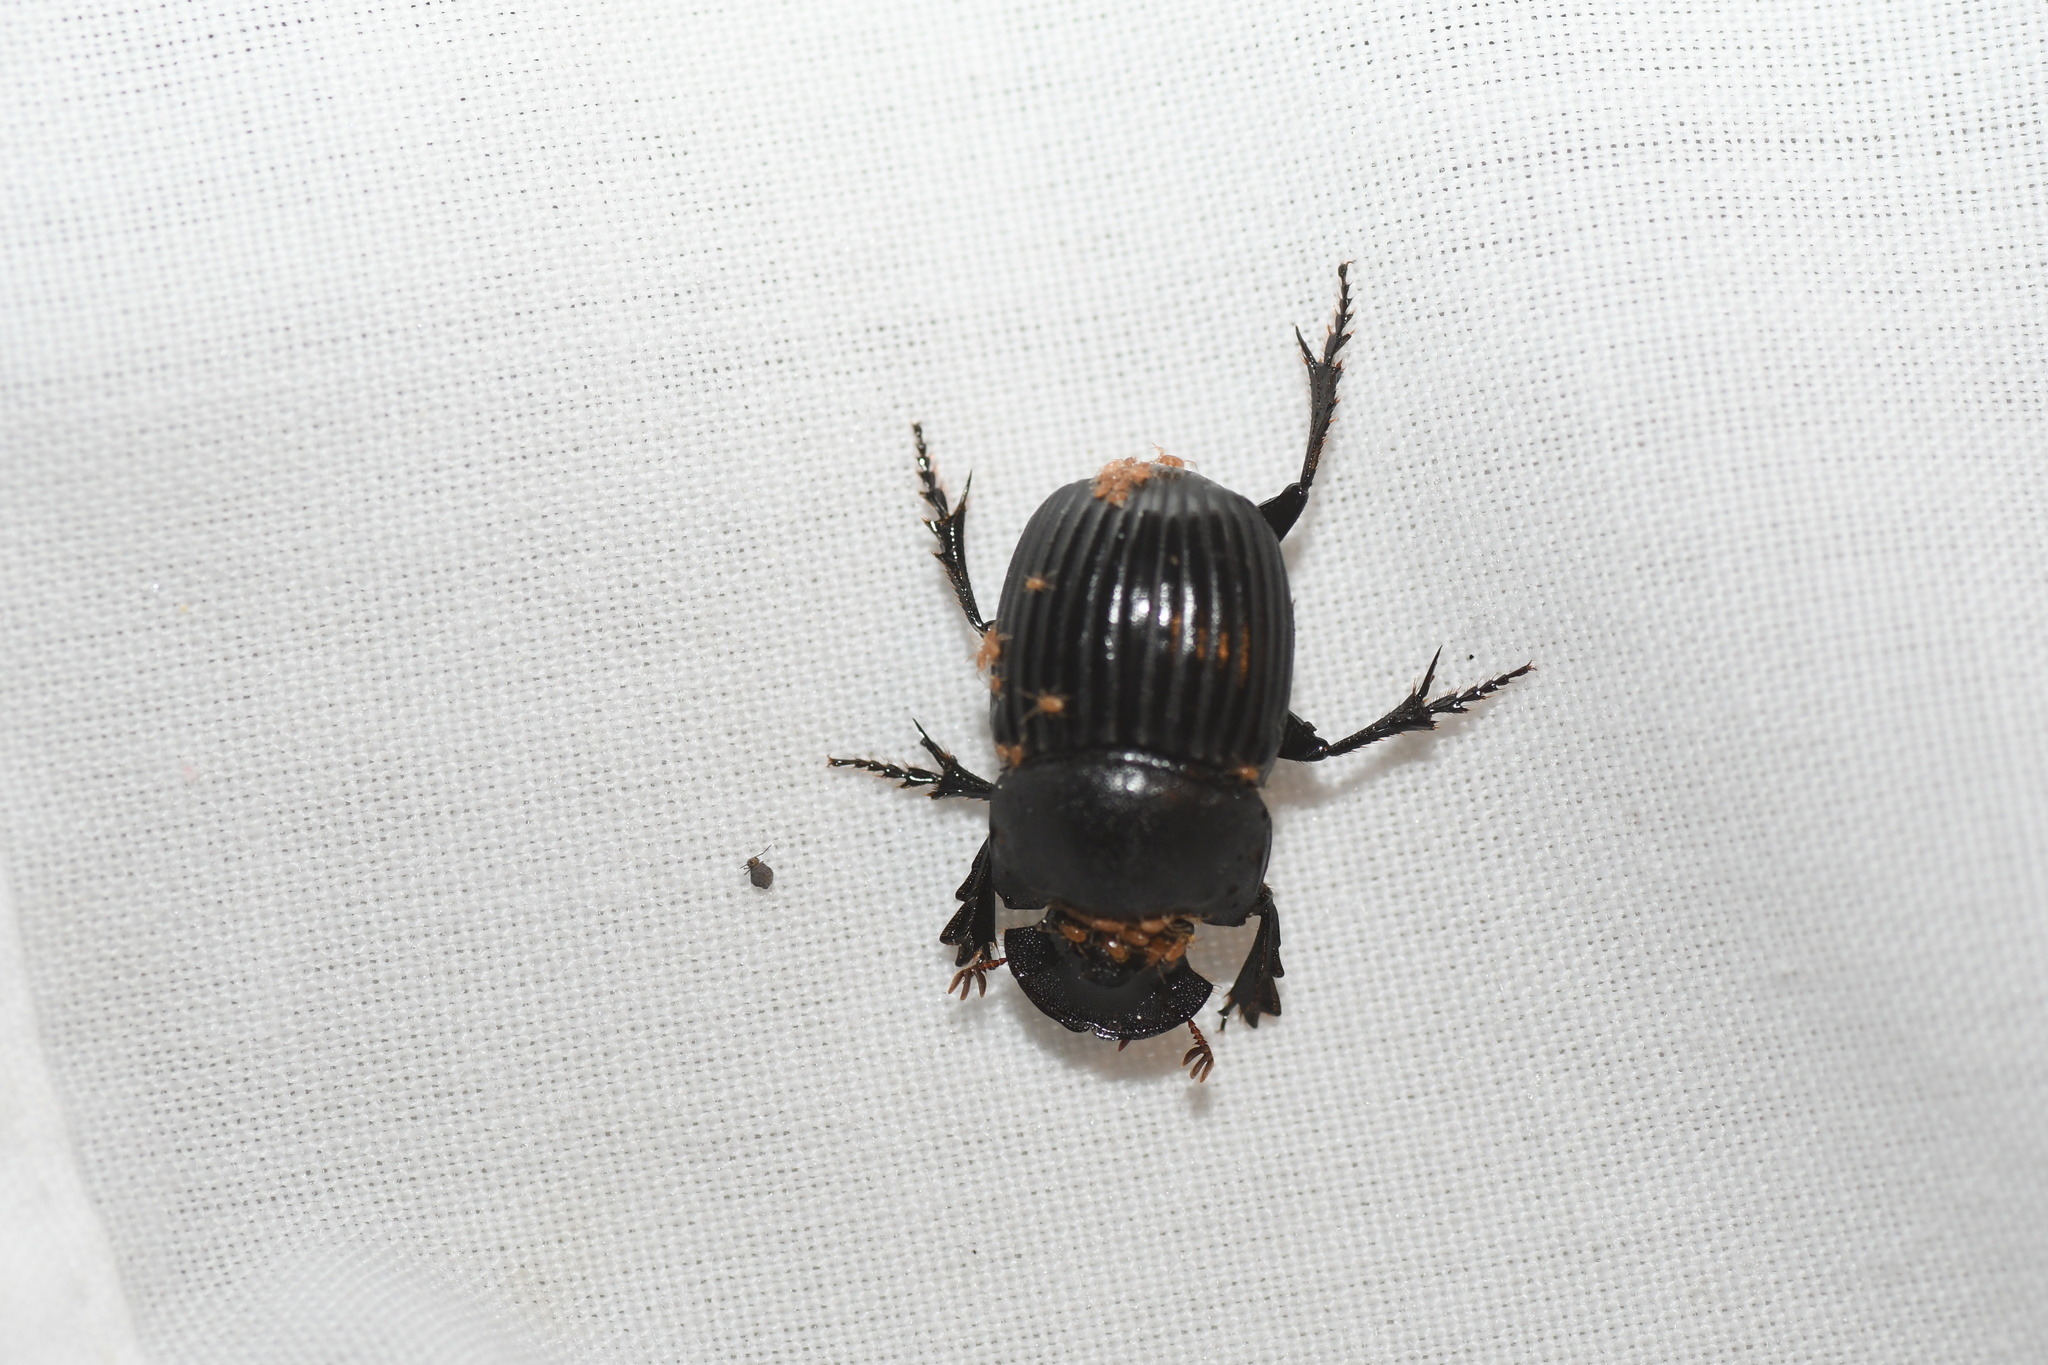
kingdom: Animalia
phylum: Arthropoda
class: Insecta
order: Coleoptera
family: Scarabaeidae
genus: Copris
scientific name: Copris fricator
